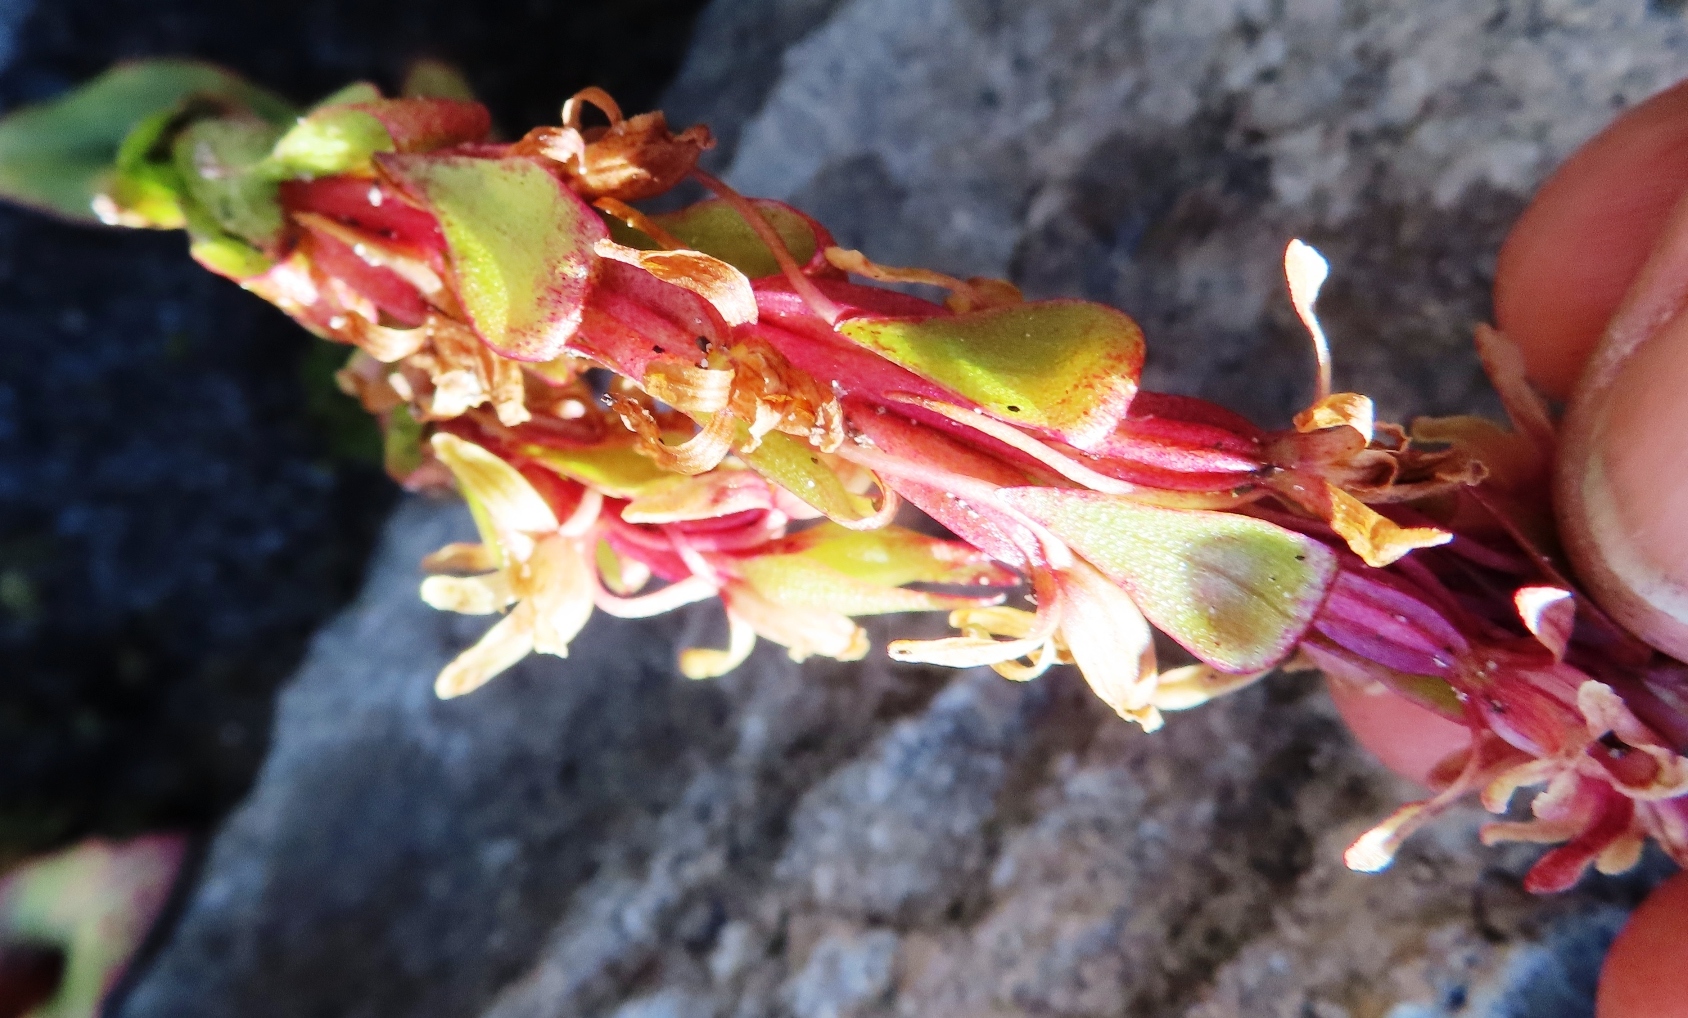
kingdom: Plantae
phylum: Tracheophyta
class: Liliopsida
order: Asparagales
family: Orchidaceae
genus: Satyrium
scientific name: Satyrium lupulinum
